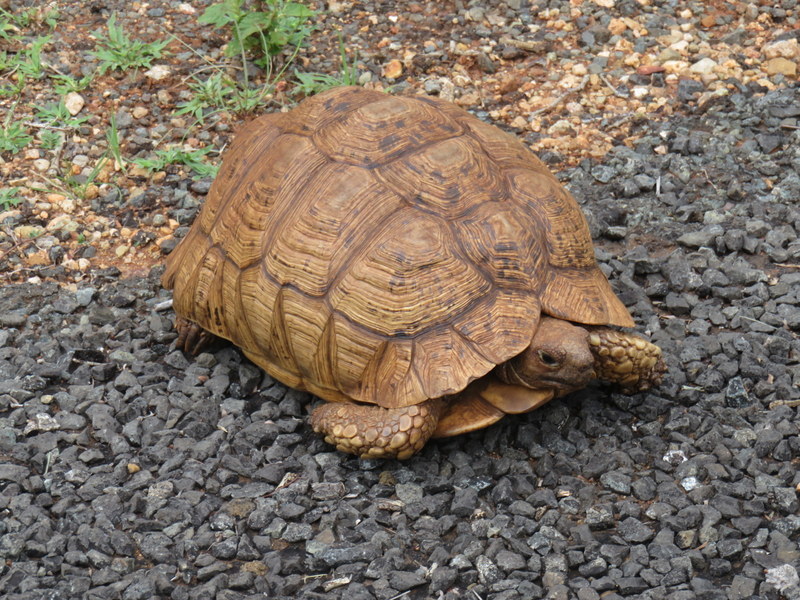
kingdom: Animalia
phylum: Chordata
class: Testudines
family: Testudinidae
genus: Stigmochelys
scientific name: Stigmochelys pardalis
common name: Leopard tortoise
